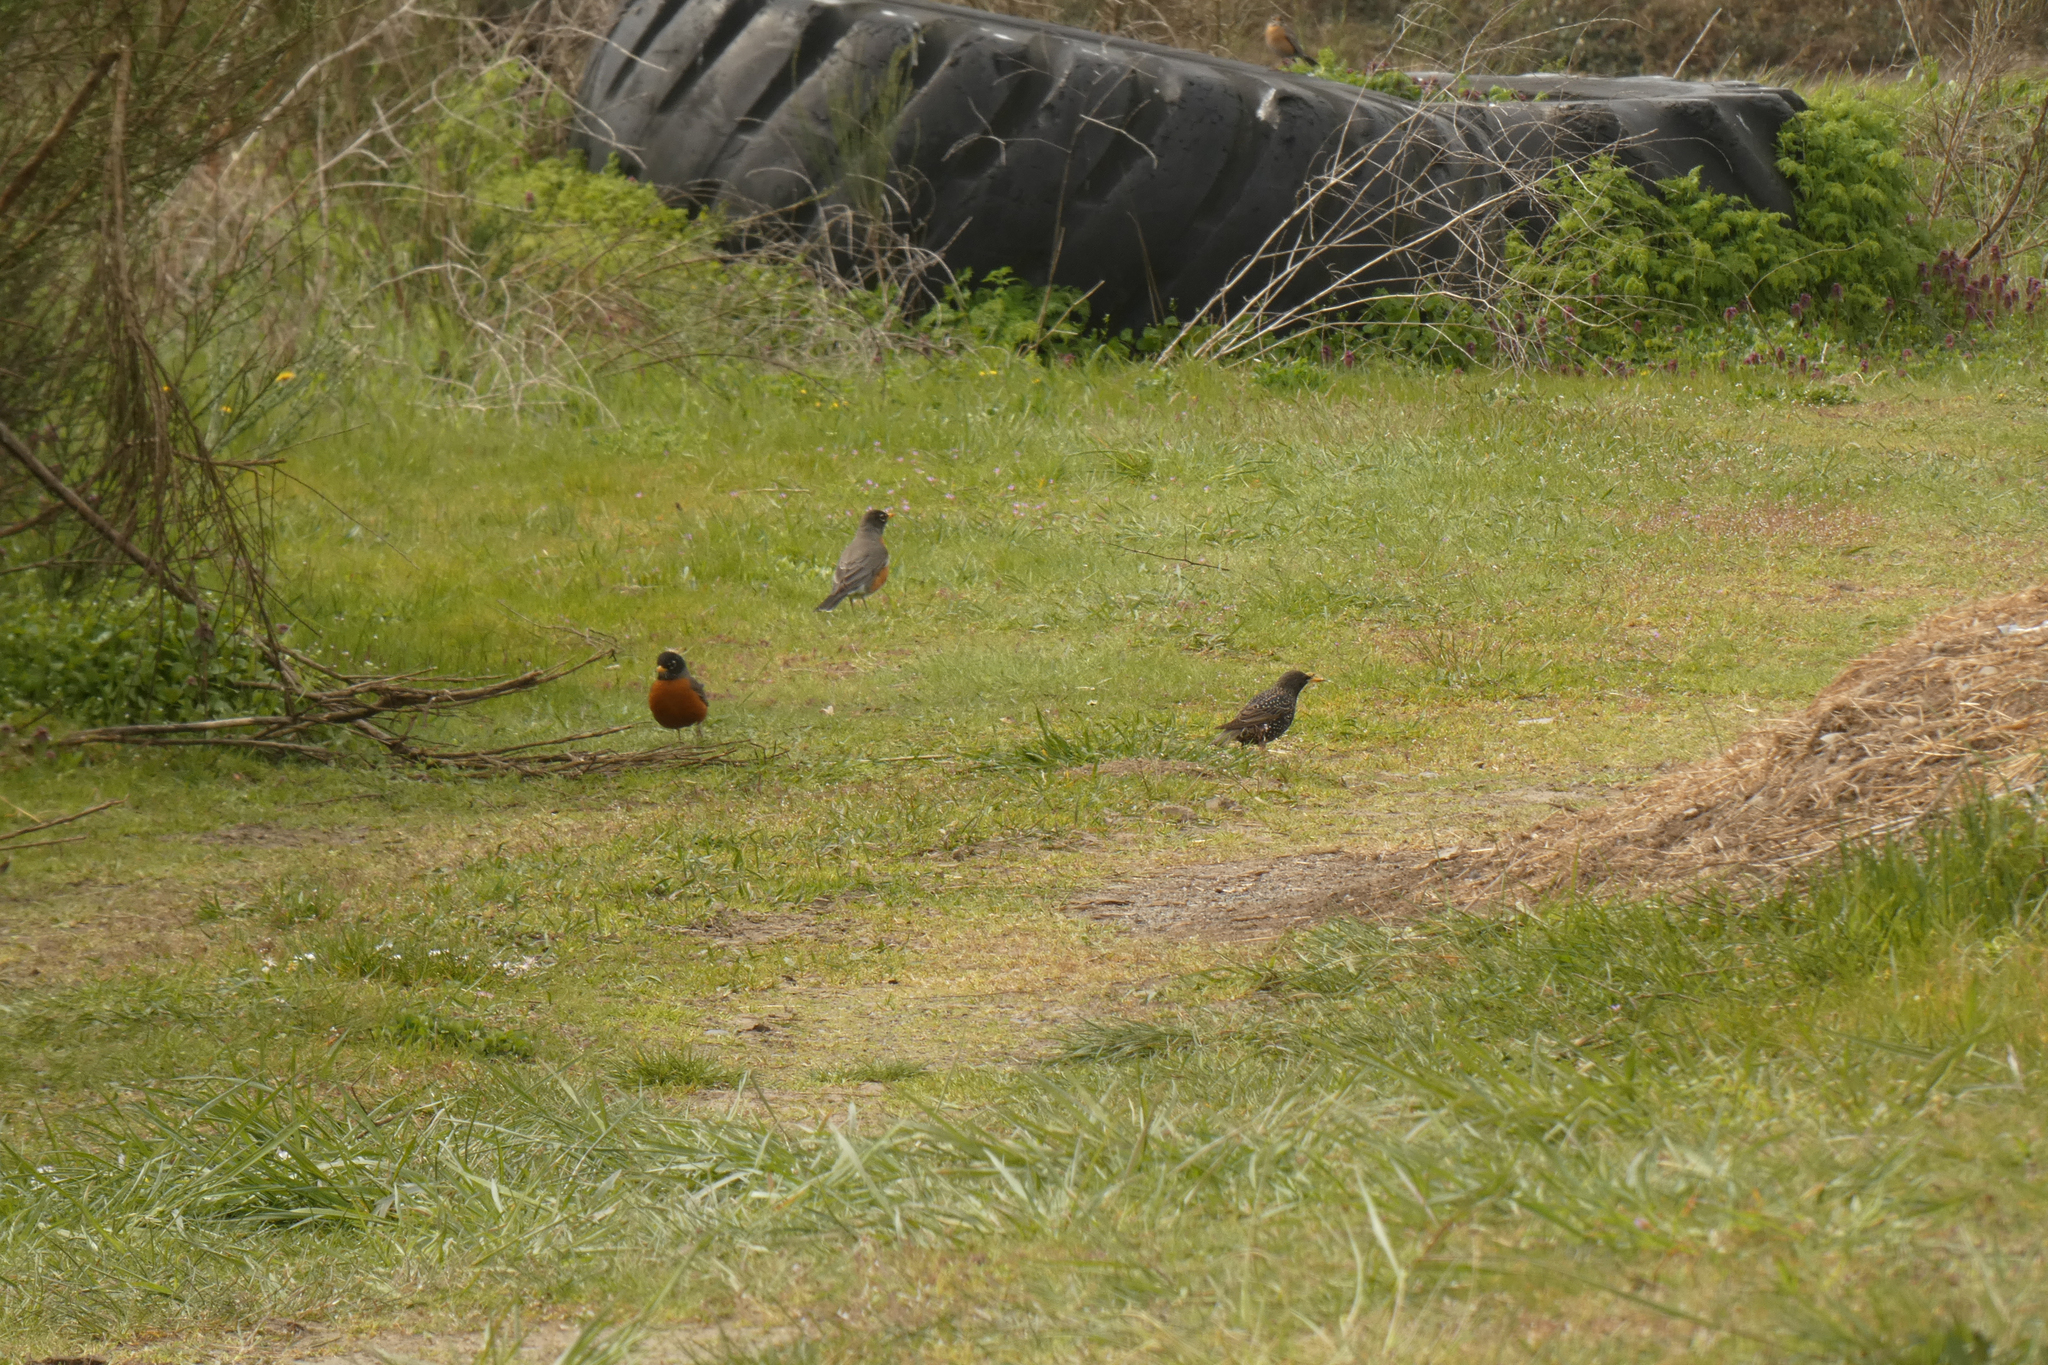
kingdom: Animalia
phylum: Chordata
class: Aves
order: Passeriformes
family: Turdidae
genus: Turdus
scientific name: Turdus migratorius
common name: American robin
